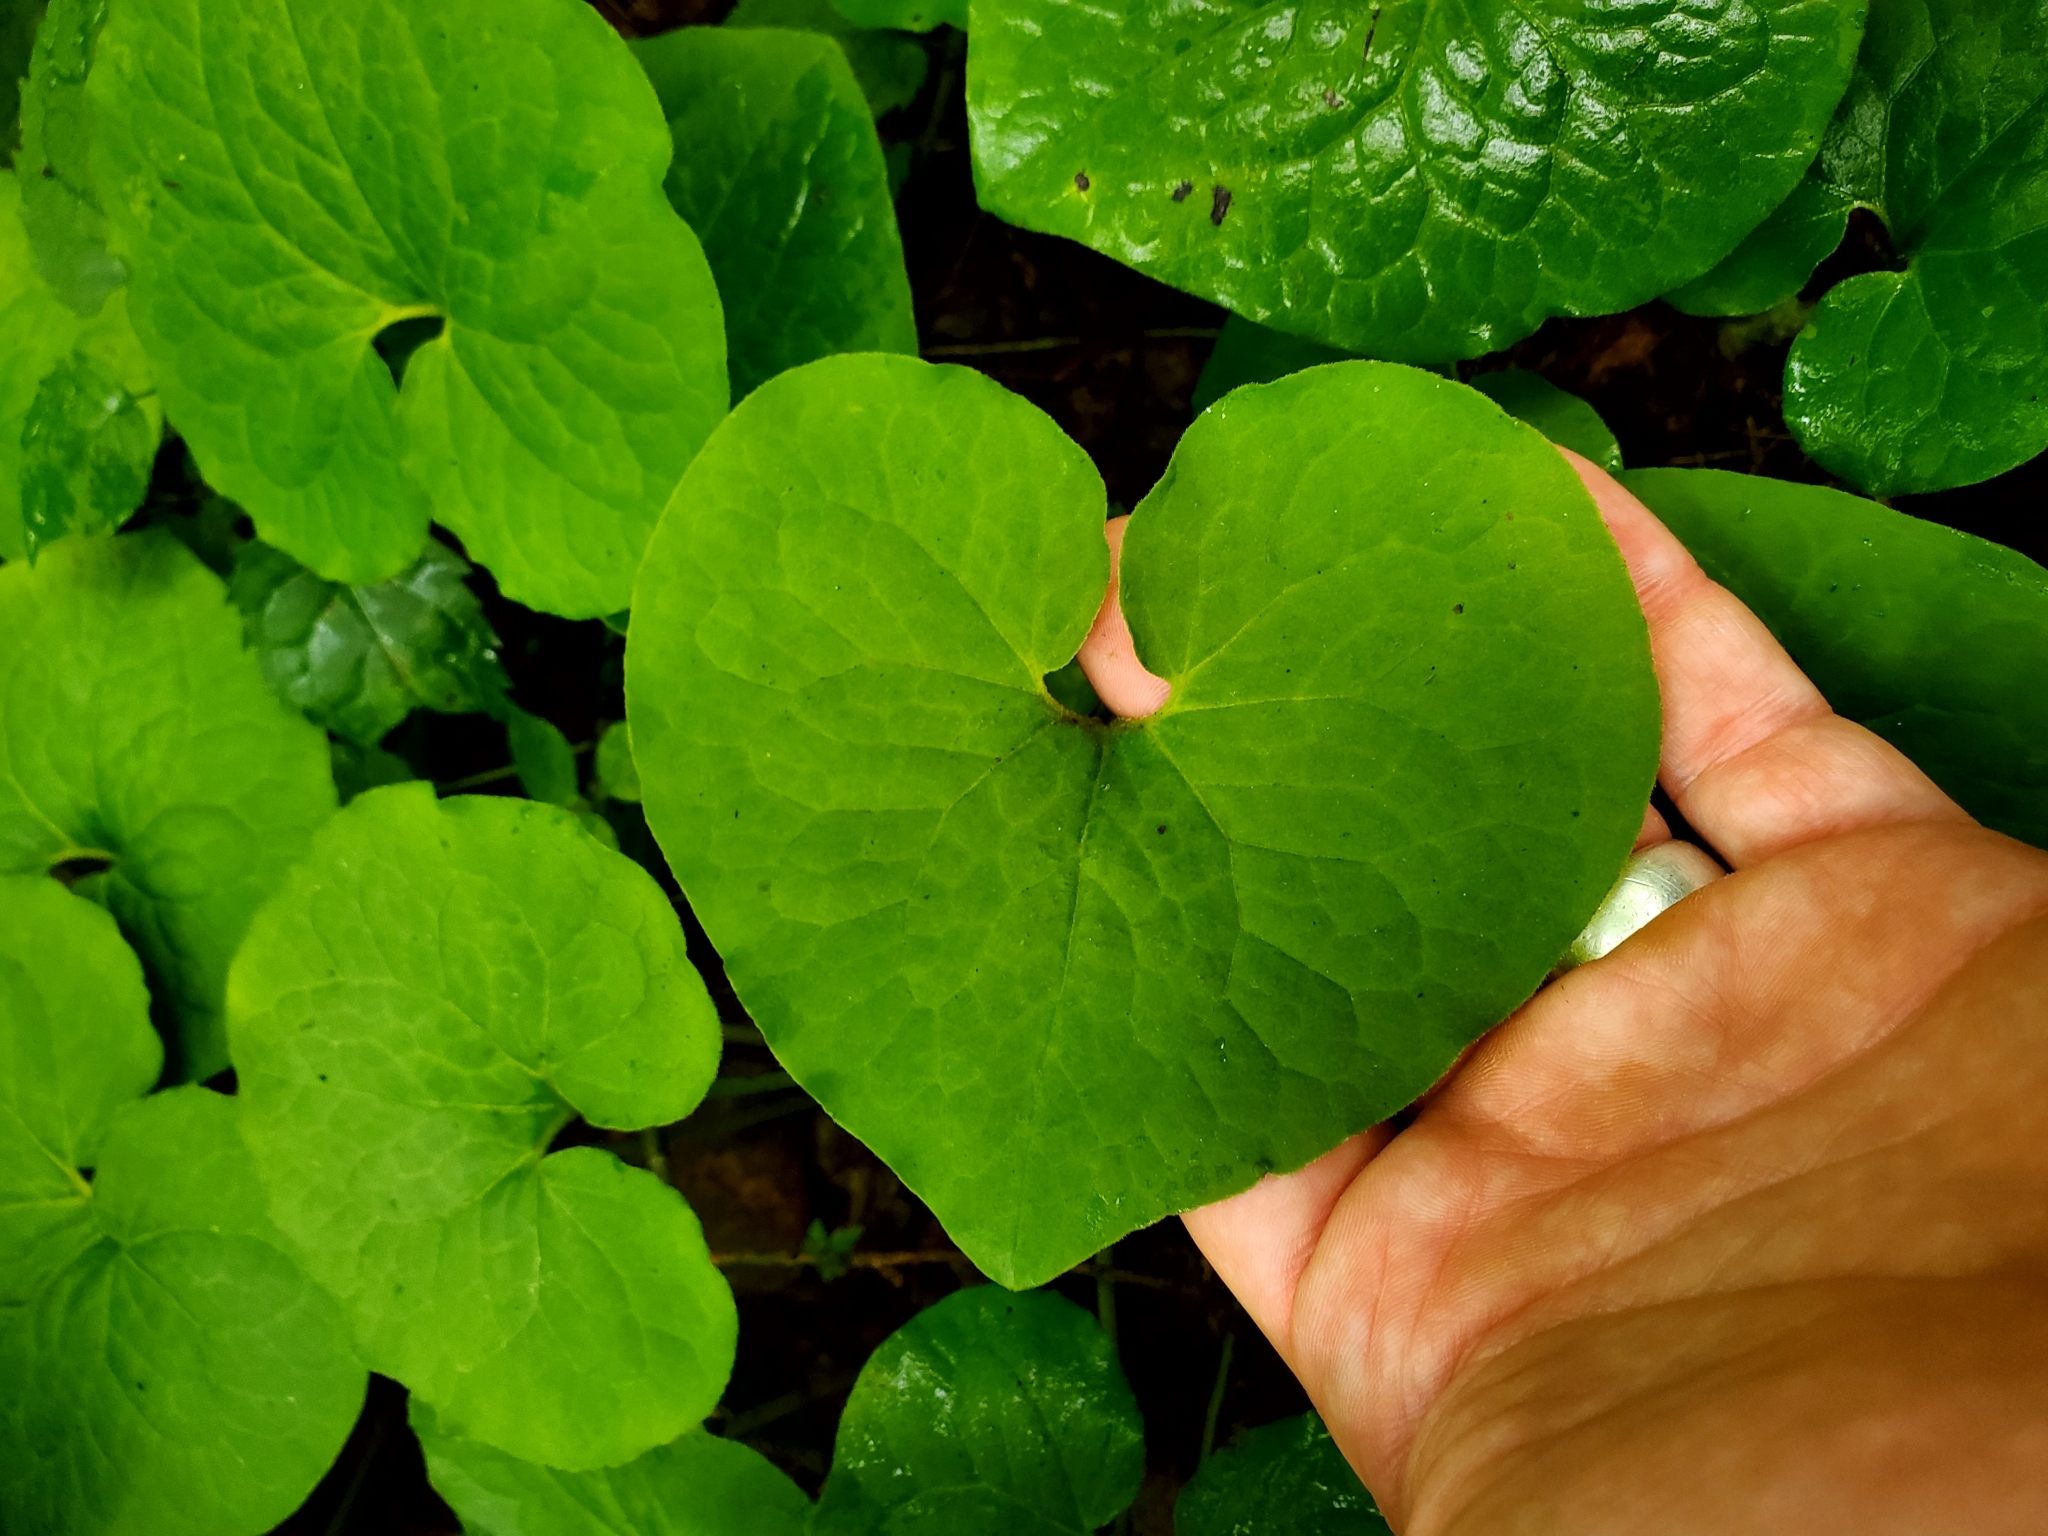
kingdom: Plantae
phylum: Tracheophyta
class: Magnoliopsida
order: Piperales
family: Aristolochiaceae
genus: Asarum
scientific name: Asarum canadense
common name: Wild ginger
